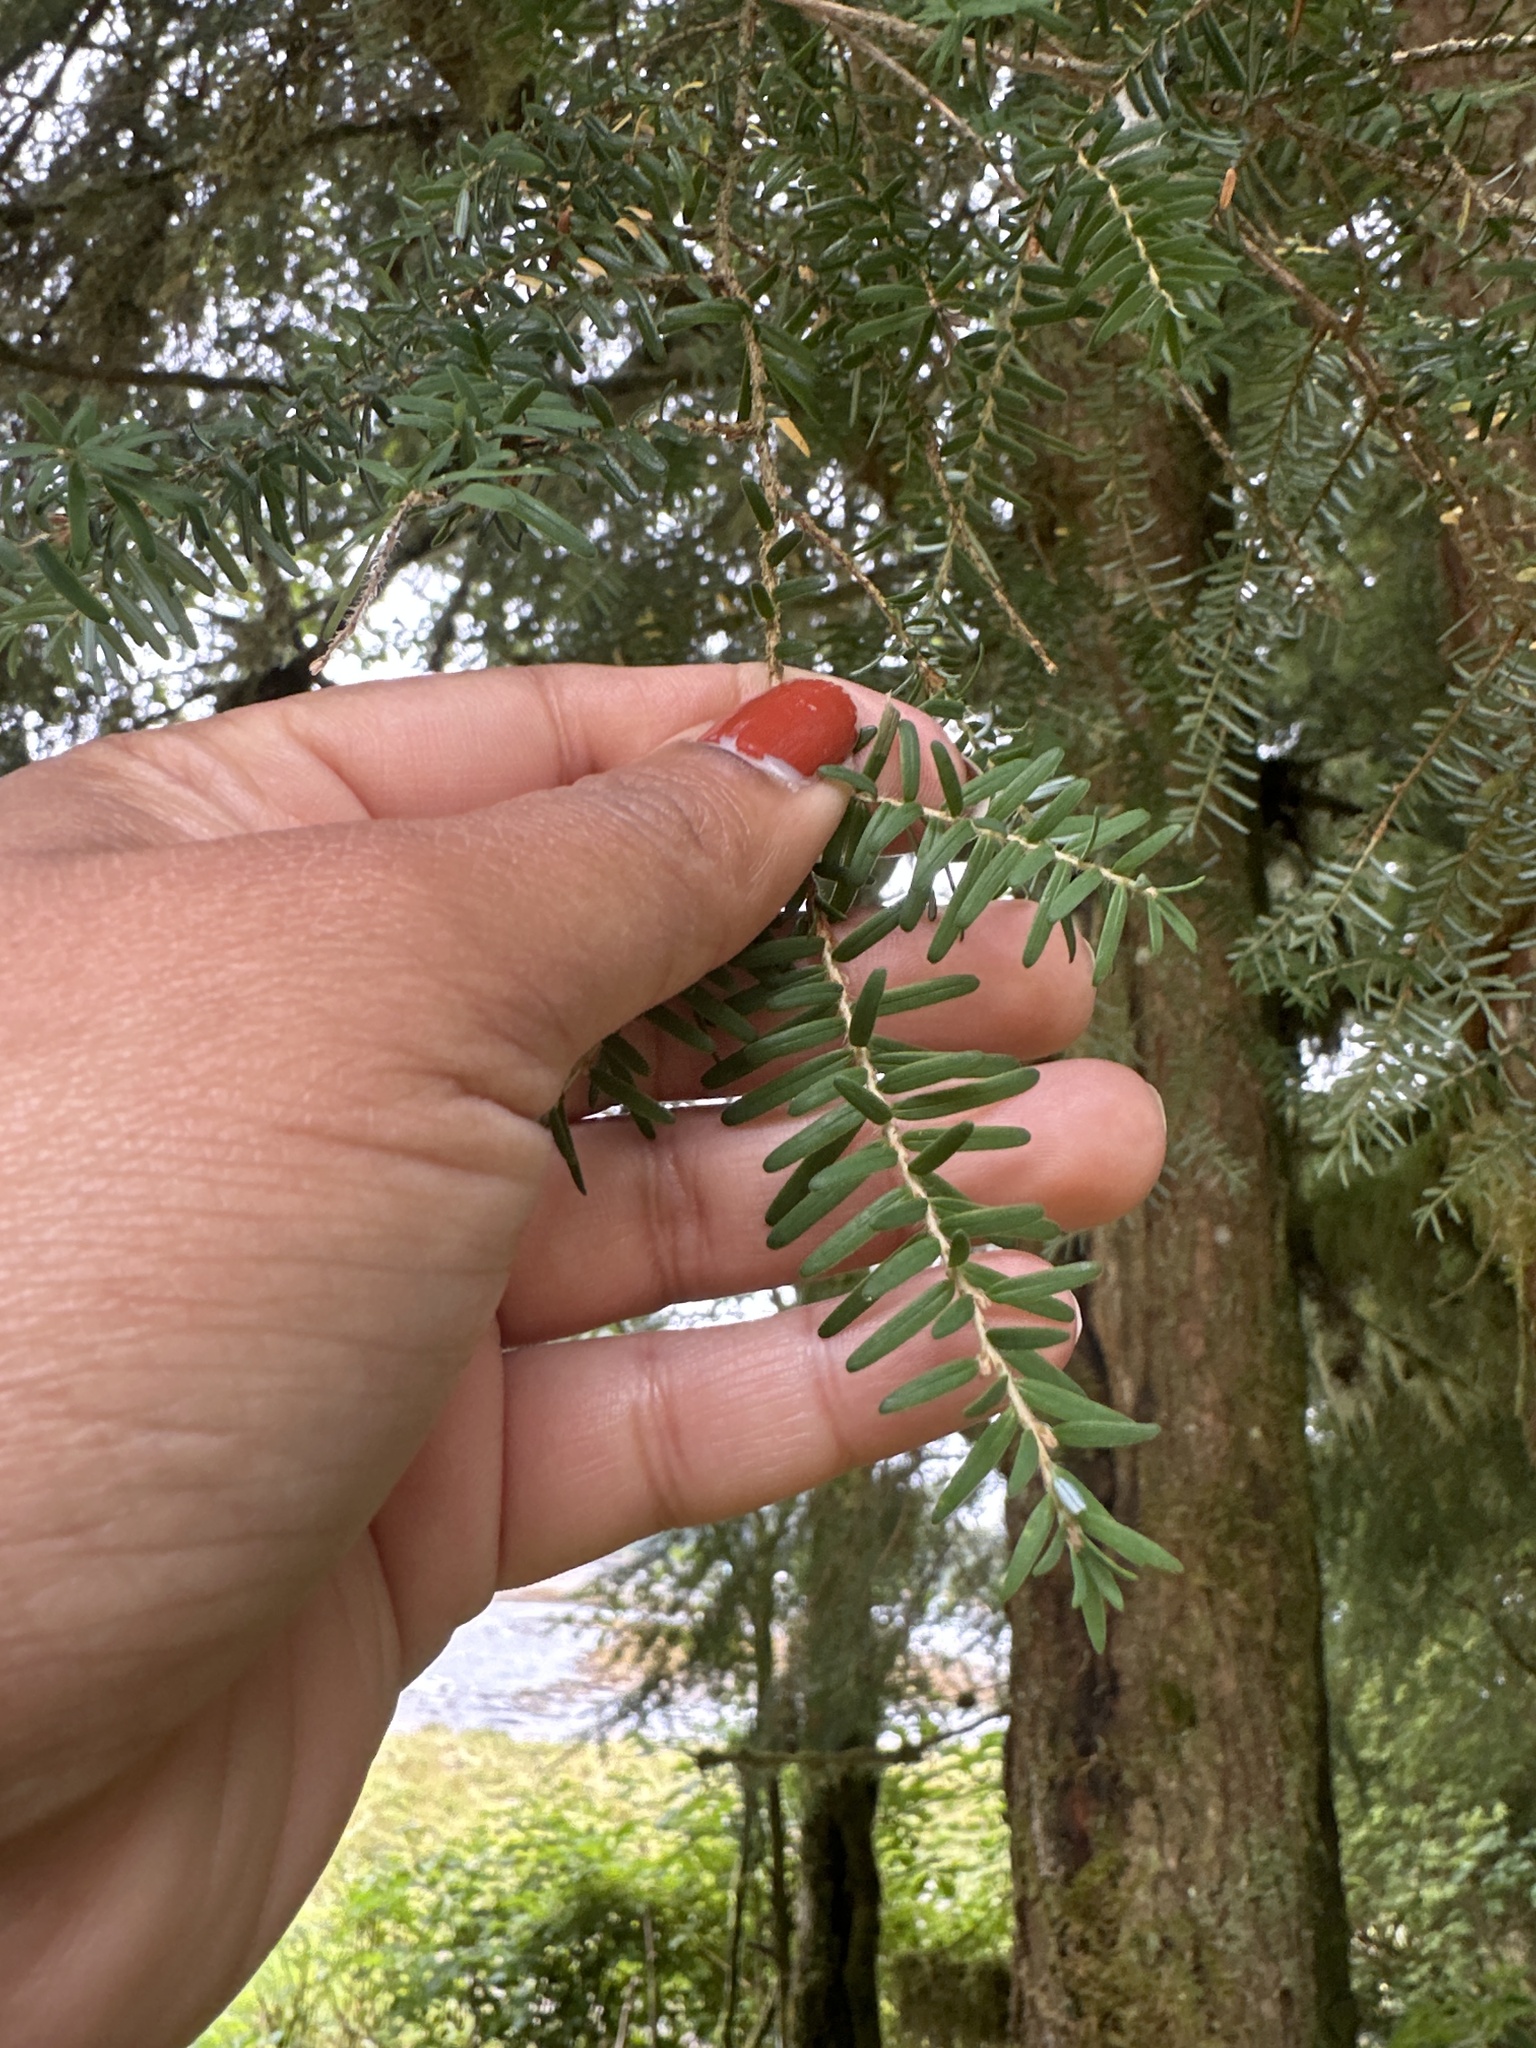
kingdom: Plantae
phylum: Tracheophyta
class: Pinopsida
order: Pinales
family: Pinaceae
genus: Tsuga
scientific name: Tsuga heterophylla
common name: Western hemlock
